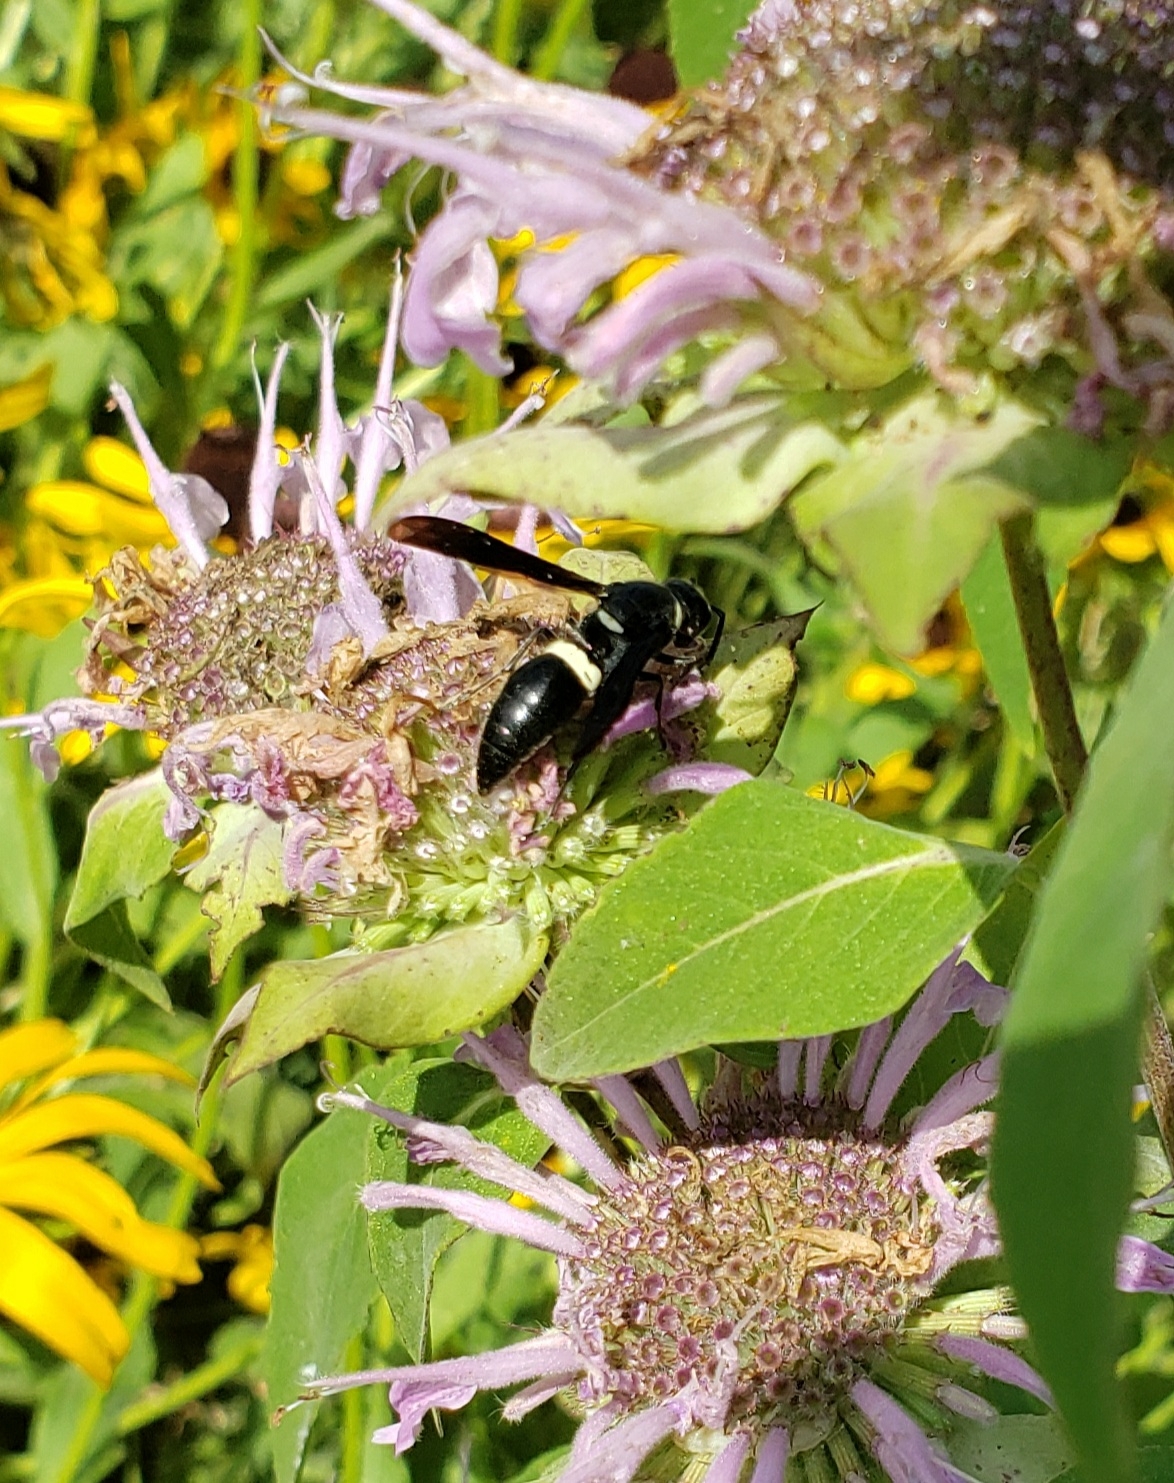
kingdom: Animalia
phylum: Arthropoda
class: Insecta
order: Hymenoptera
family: Eumenidae
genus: Monobia
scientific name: Monobia quadridens
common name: Four-toothed mason wasp
